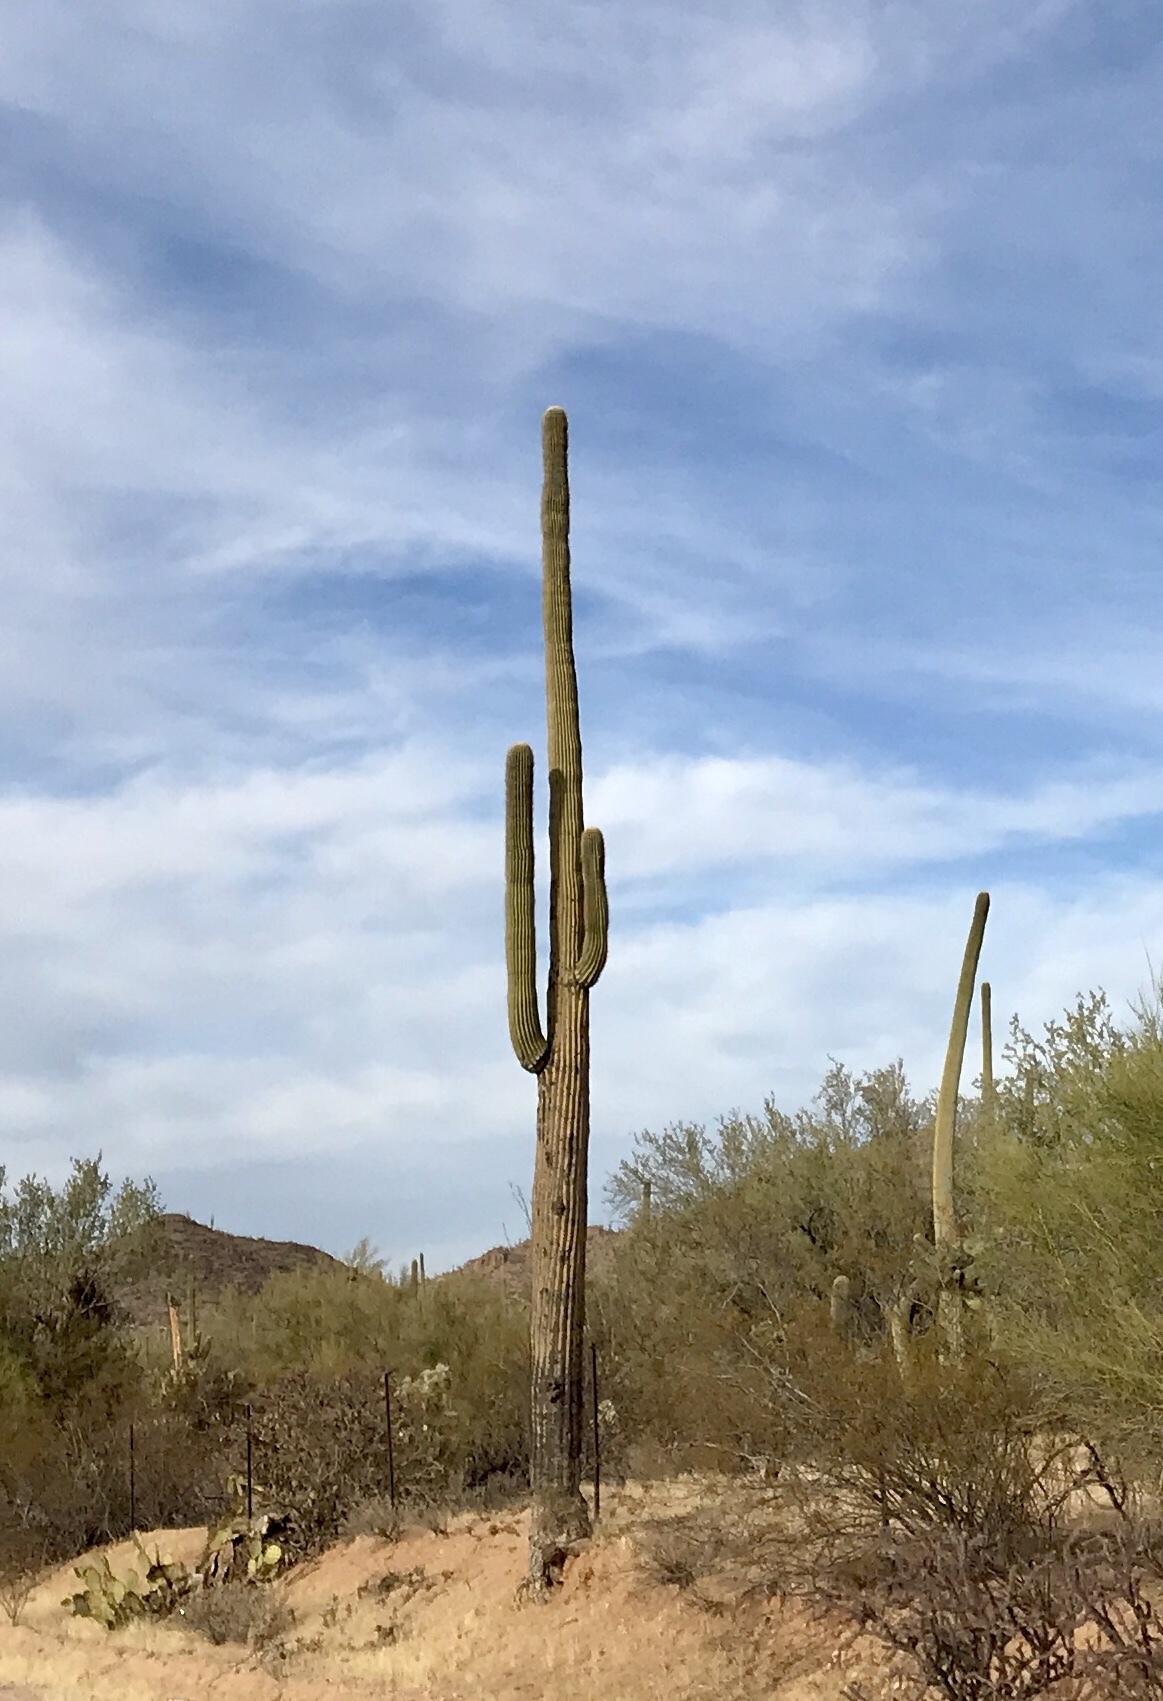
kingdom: Plantae
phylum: Tracheophyta
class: Magnoliopsida
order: Caryophyllales
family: Cactaceae
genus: Carnegiea
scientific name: Carnegiea gigantea
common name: Saguaro
